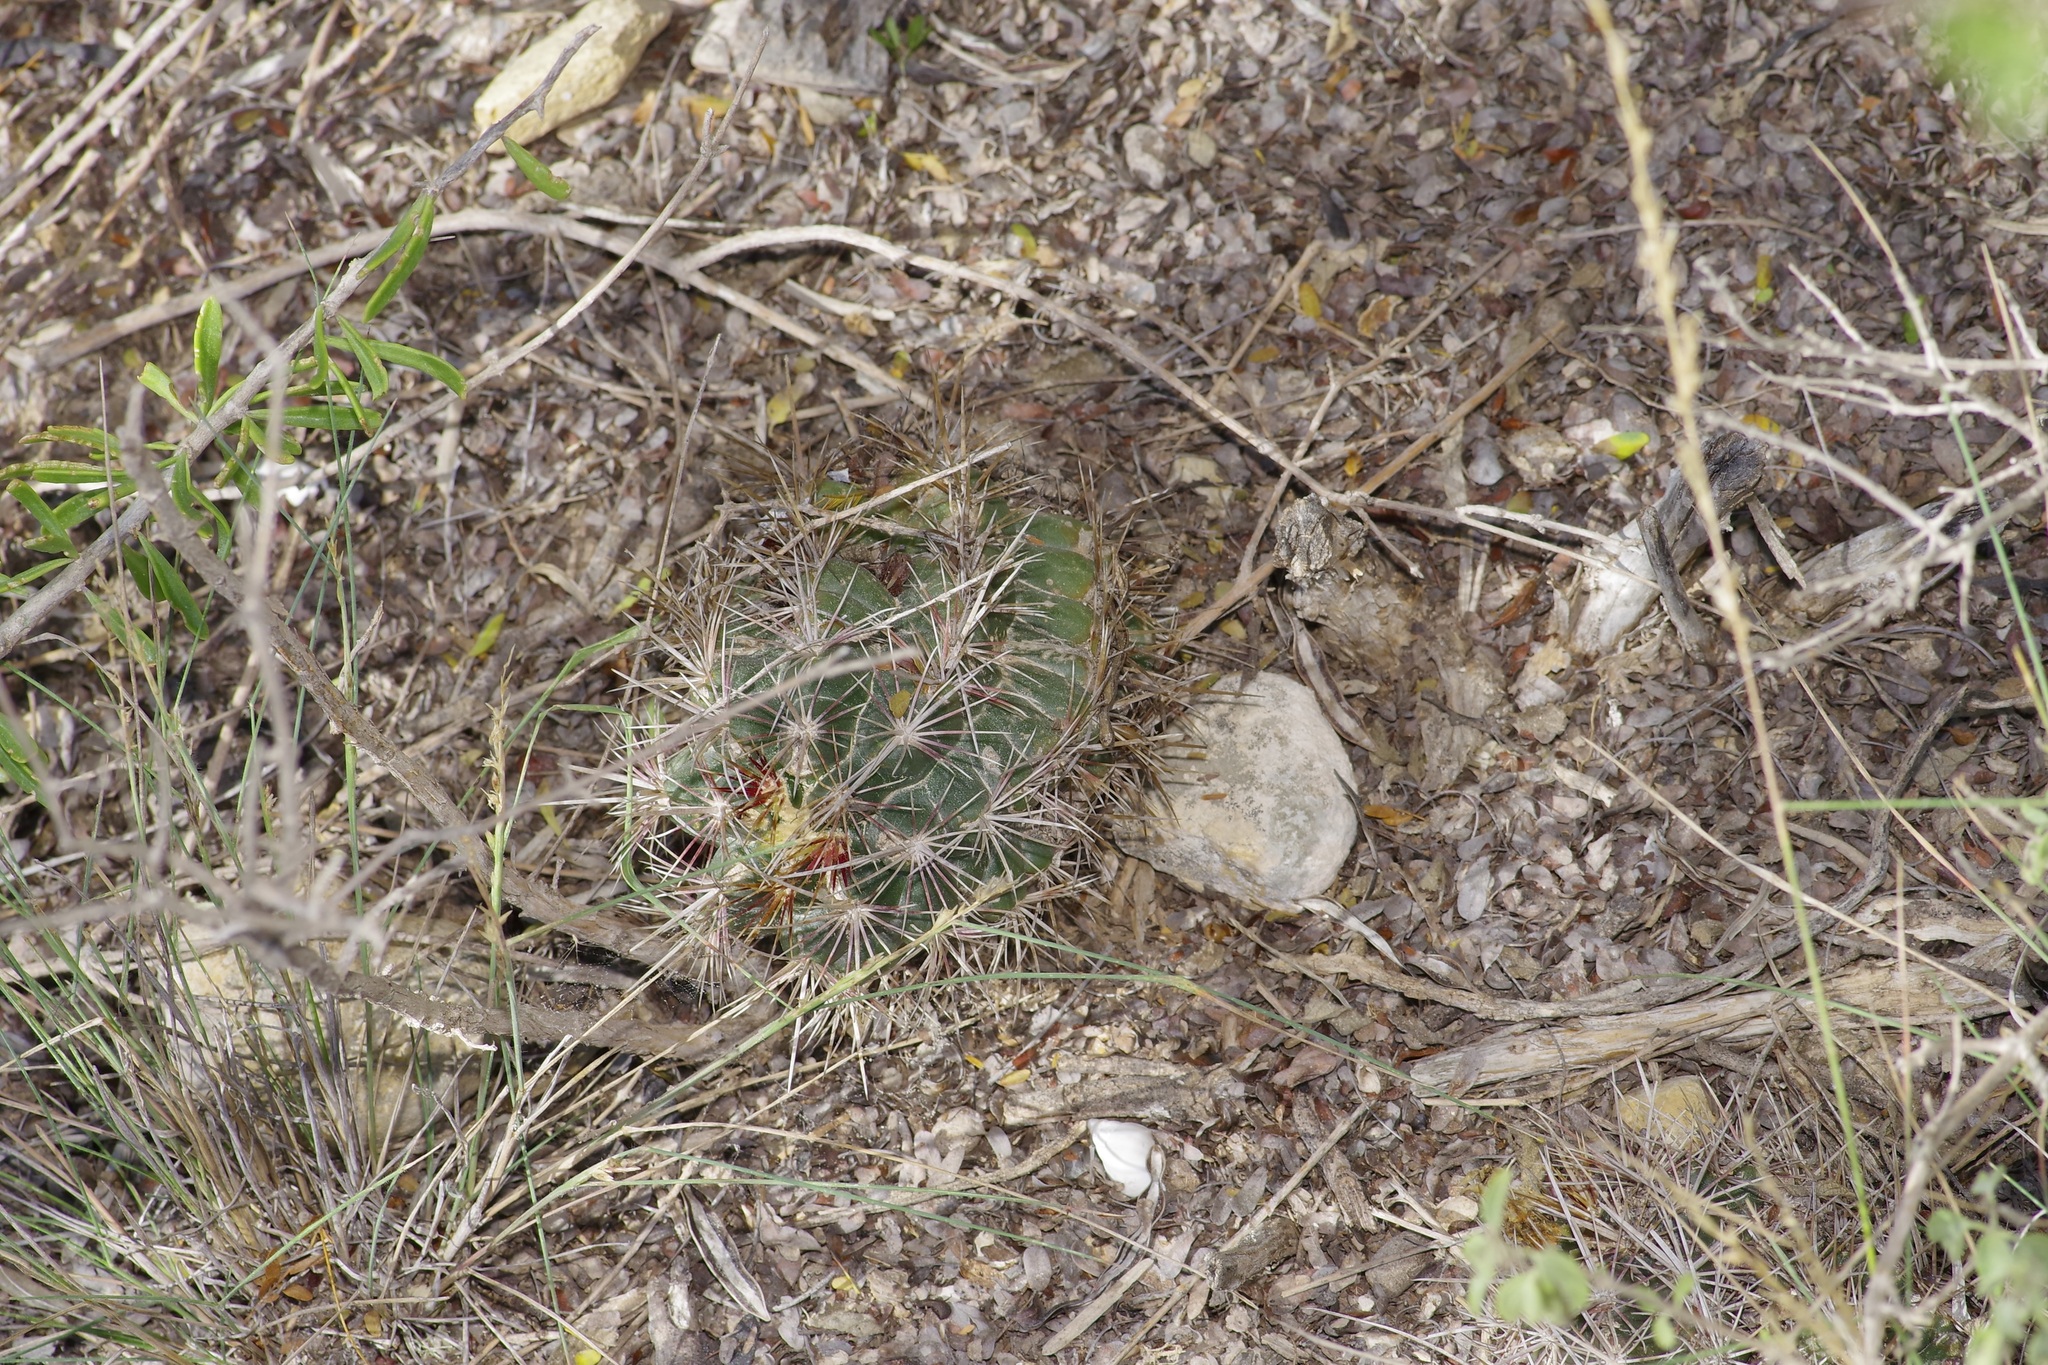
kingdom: Plantae
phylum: Tracheophyta
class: Magnoliopsida
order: Caryophyllales
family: Cactaceae
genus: Thelocactus
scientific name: Thelocactus bicolor
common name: Glory of texas
